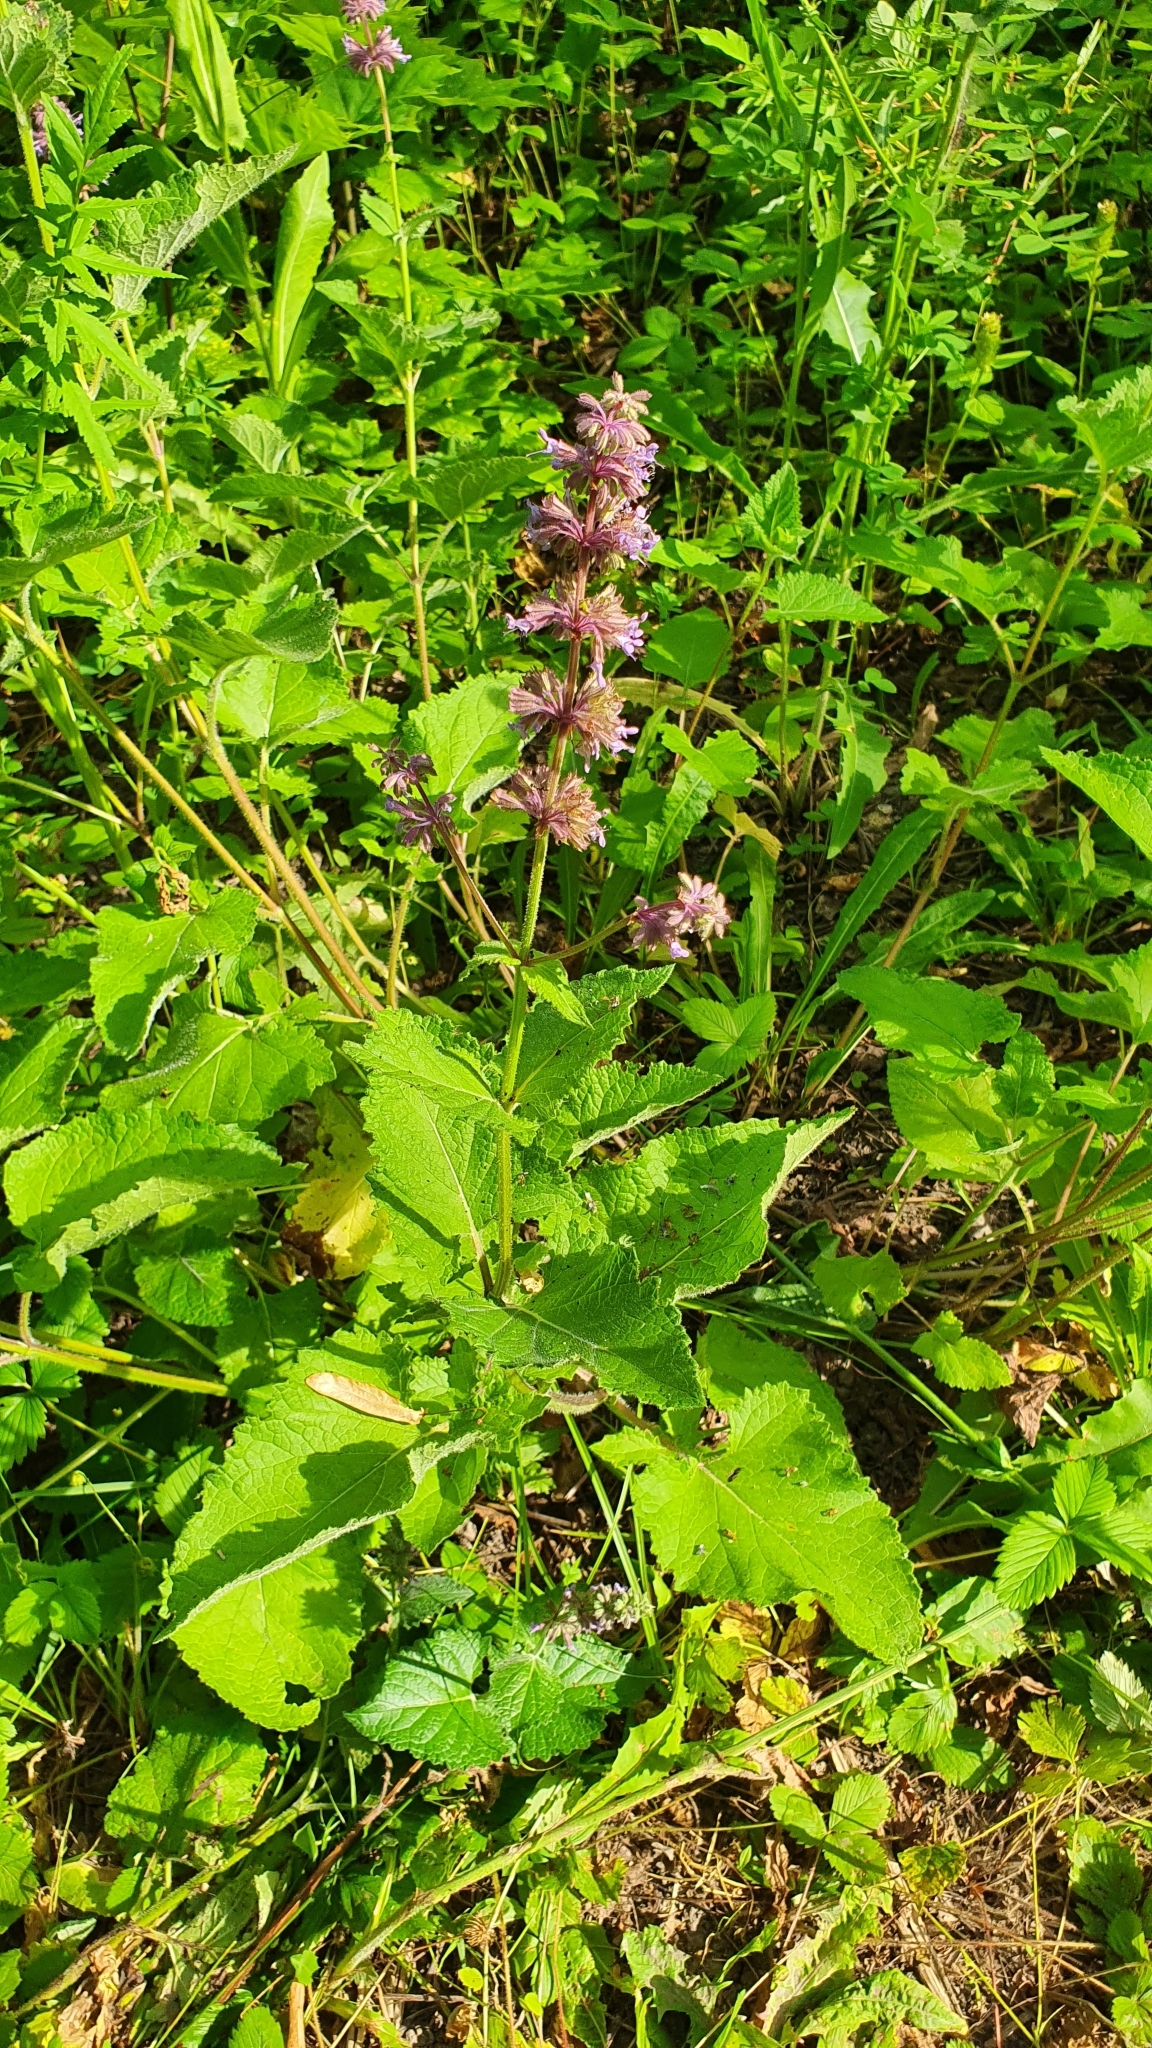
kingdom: Plantae
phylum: Tracheophyta
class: Magnoliopsida
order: Lamiales
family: Lamiaceae
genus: Salvia
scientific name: Salvia verticillata
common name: Whorled clary
